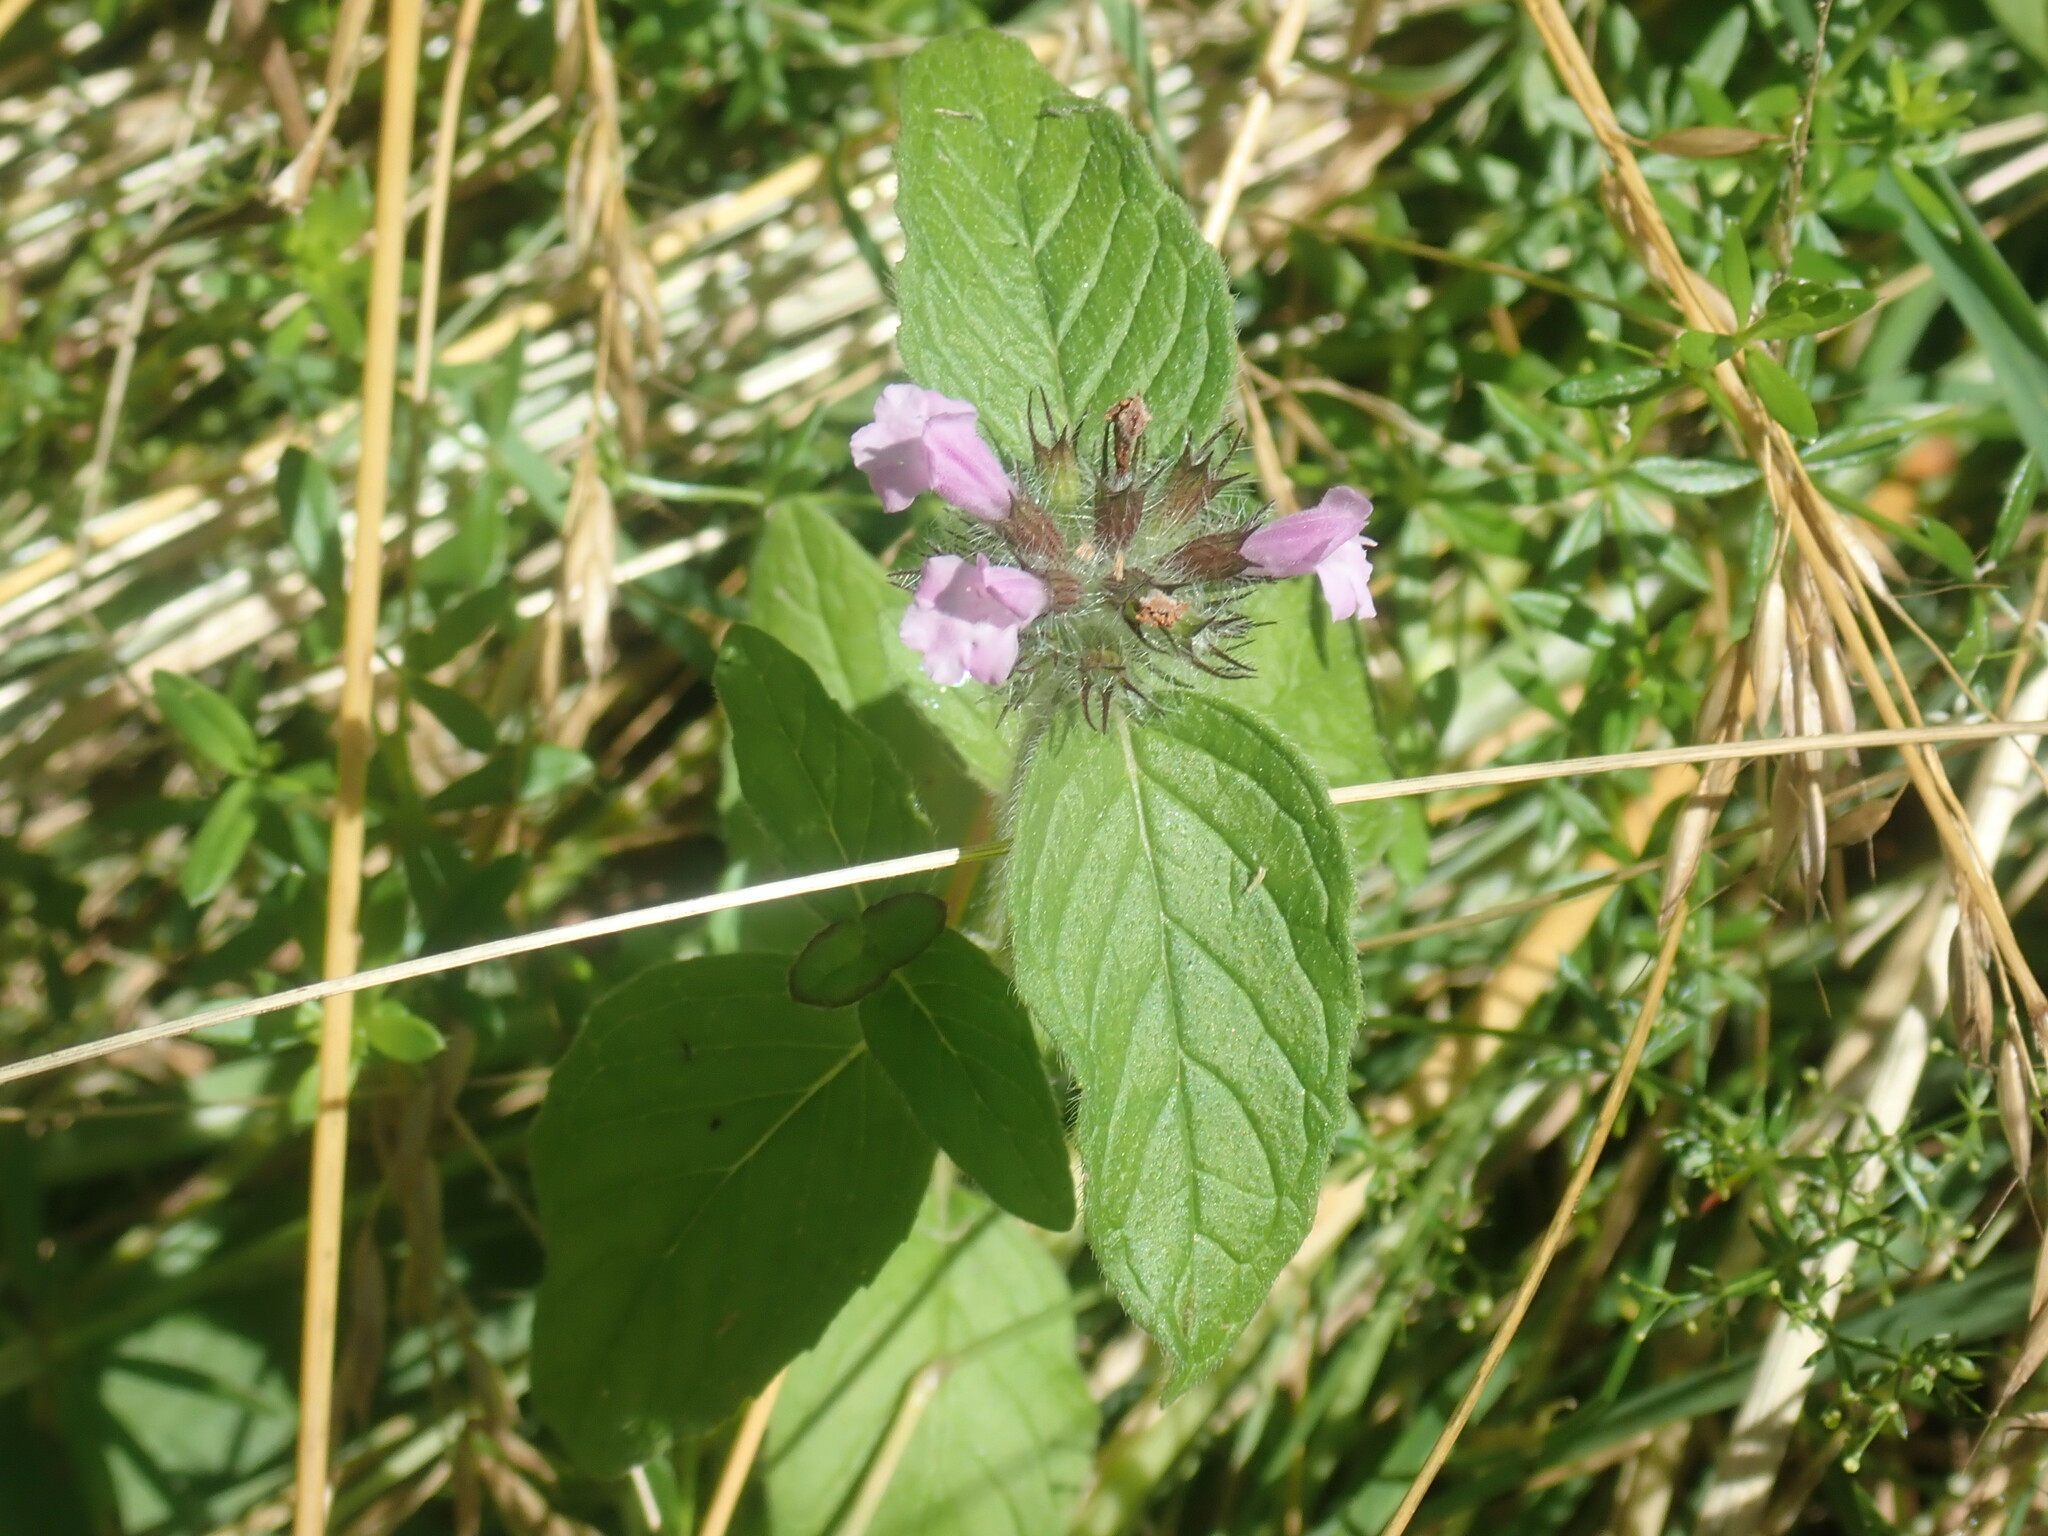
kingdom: Plantae
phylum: Tracheophyta
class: Magnoliopsida
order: Lamiales
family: Lamiaceae
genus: Clinopodium
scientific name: Clinopodium vulgare
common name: Wild basil
